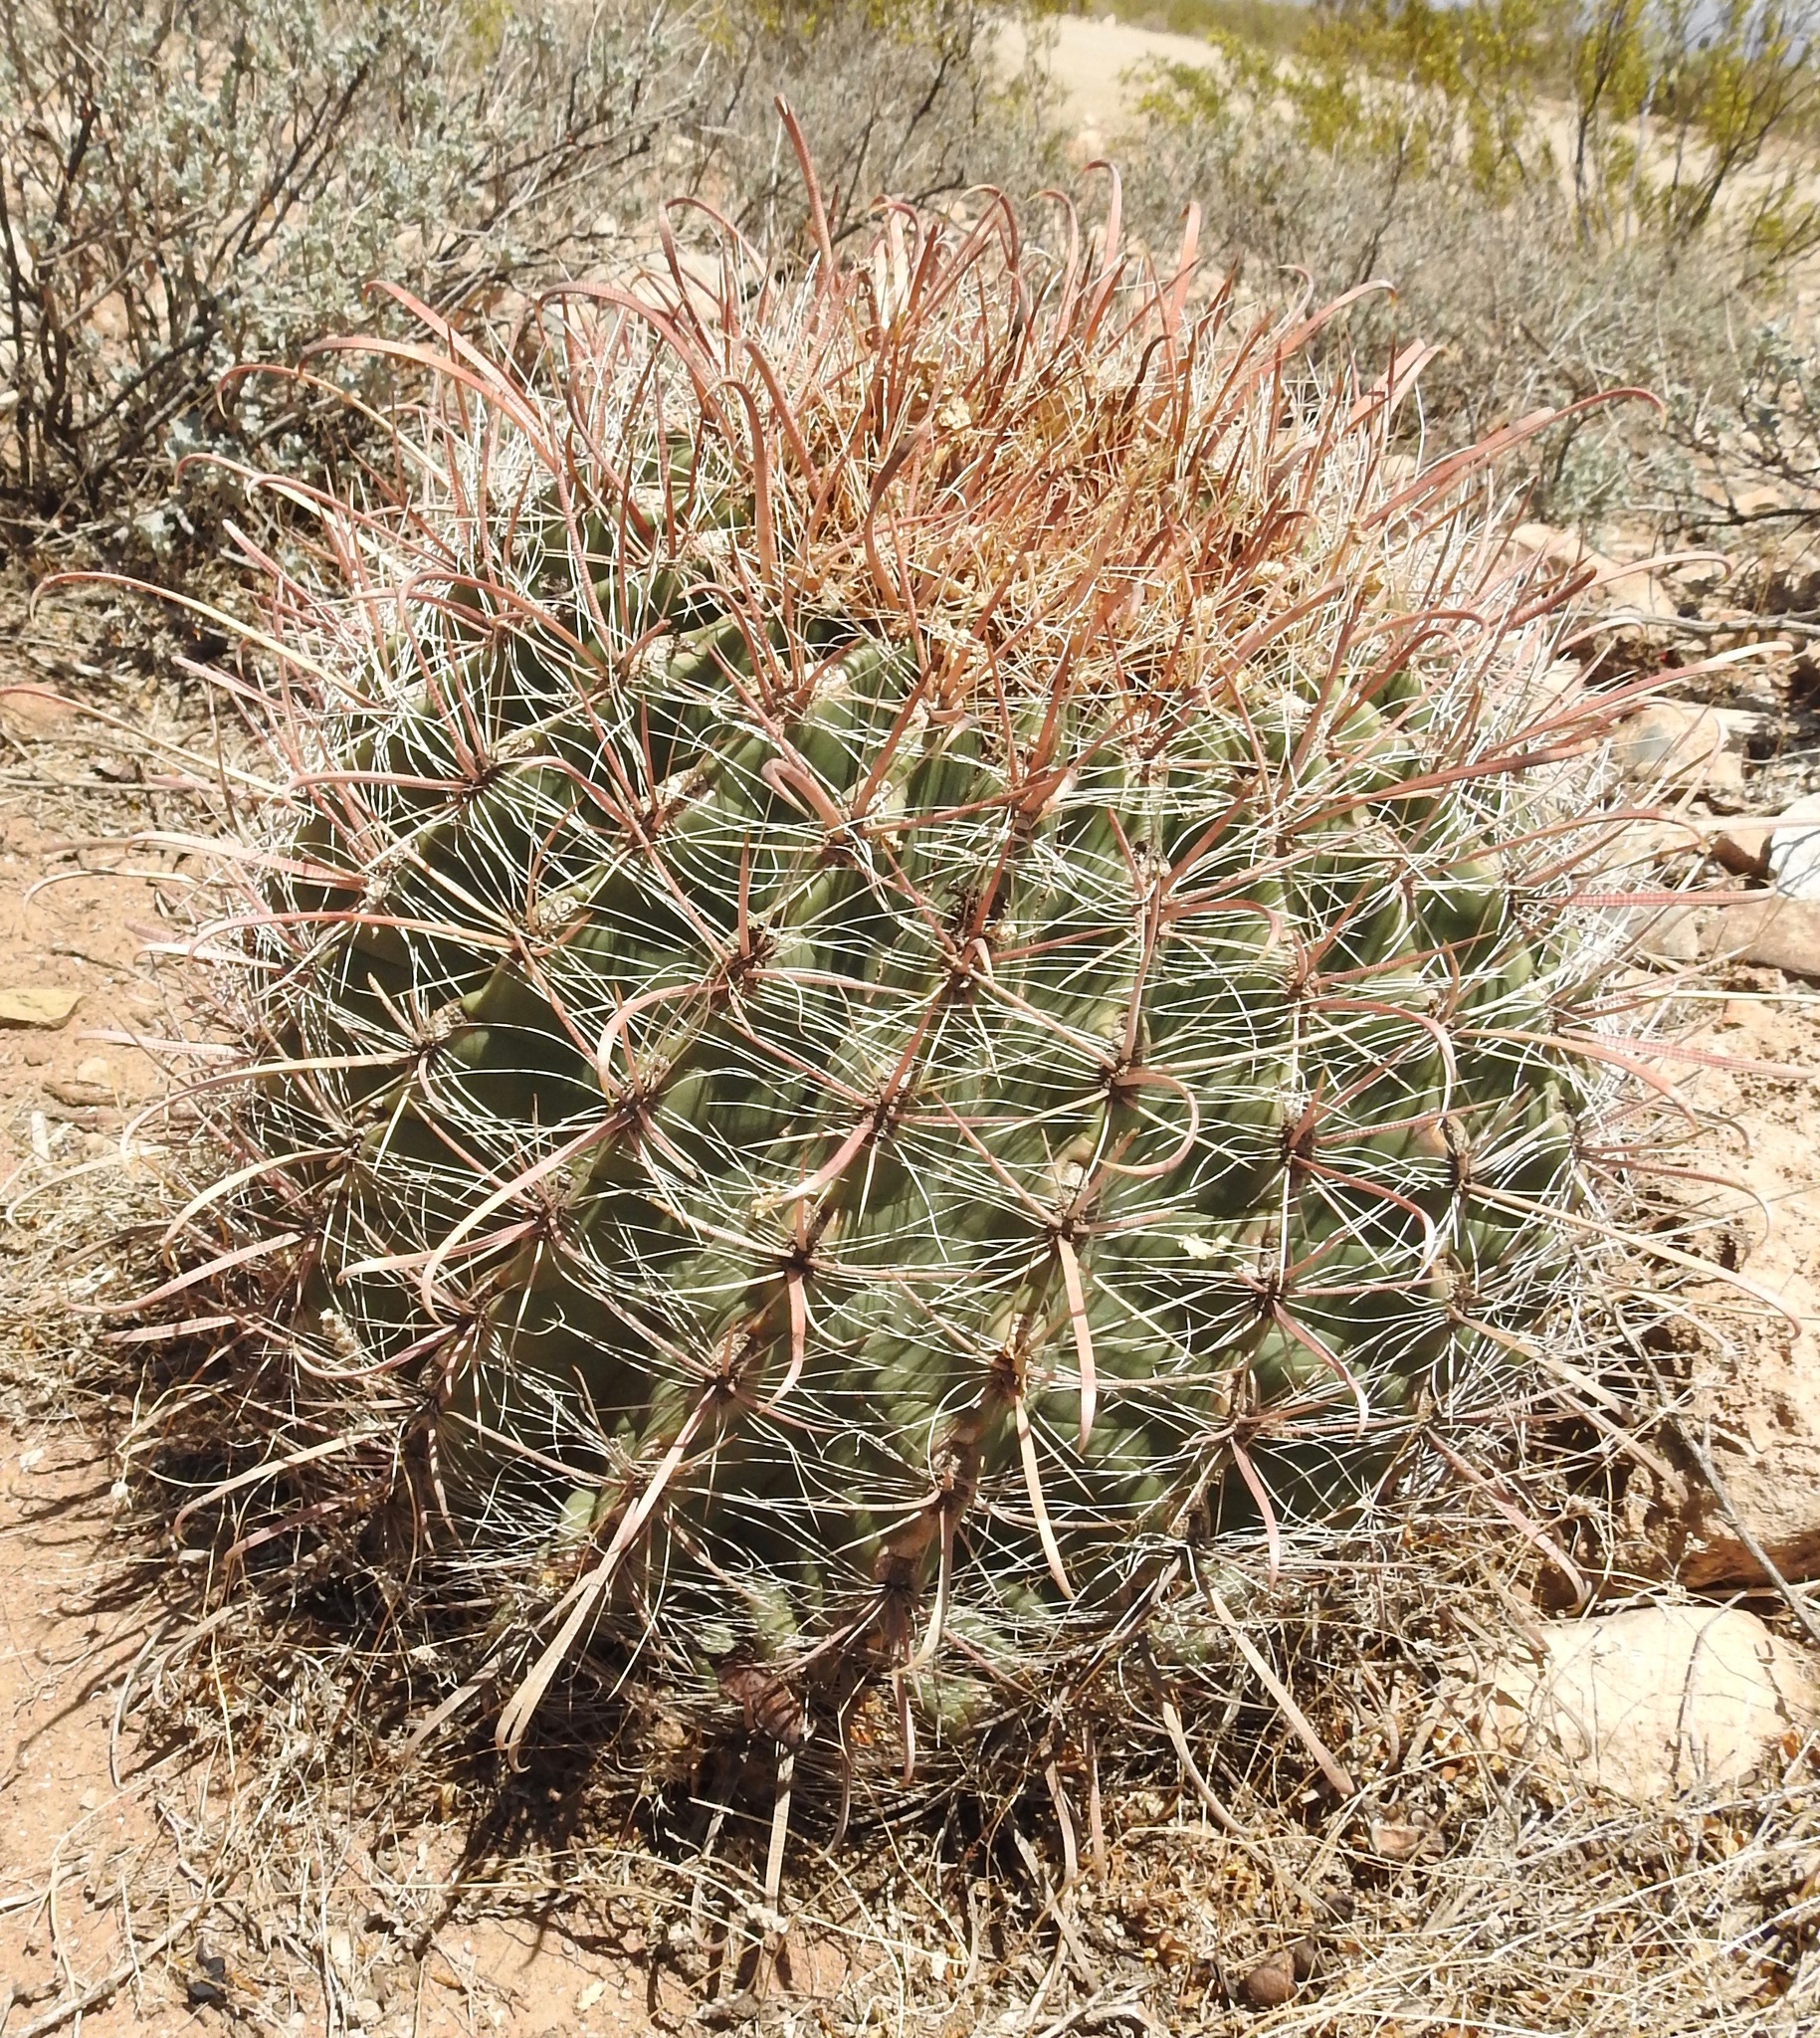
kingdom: Plantae
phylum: Tracheophyta
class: Magnoliopsida
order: Caryophyllales
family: Cactaceae
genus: Ferocactus
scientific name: Ferocactus wislizeni
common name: Candy barrel cactus
